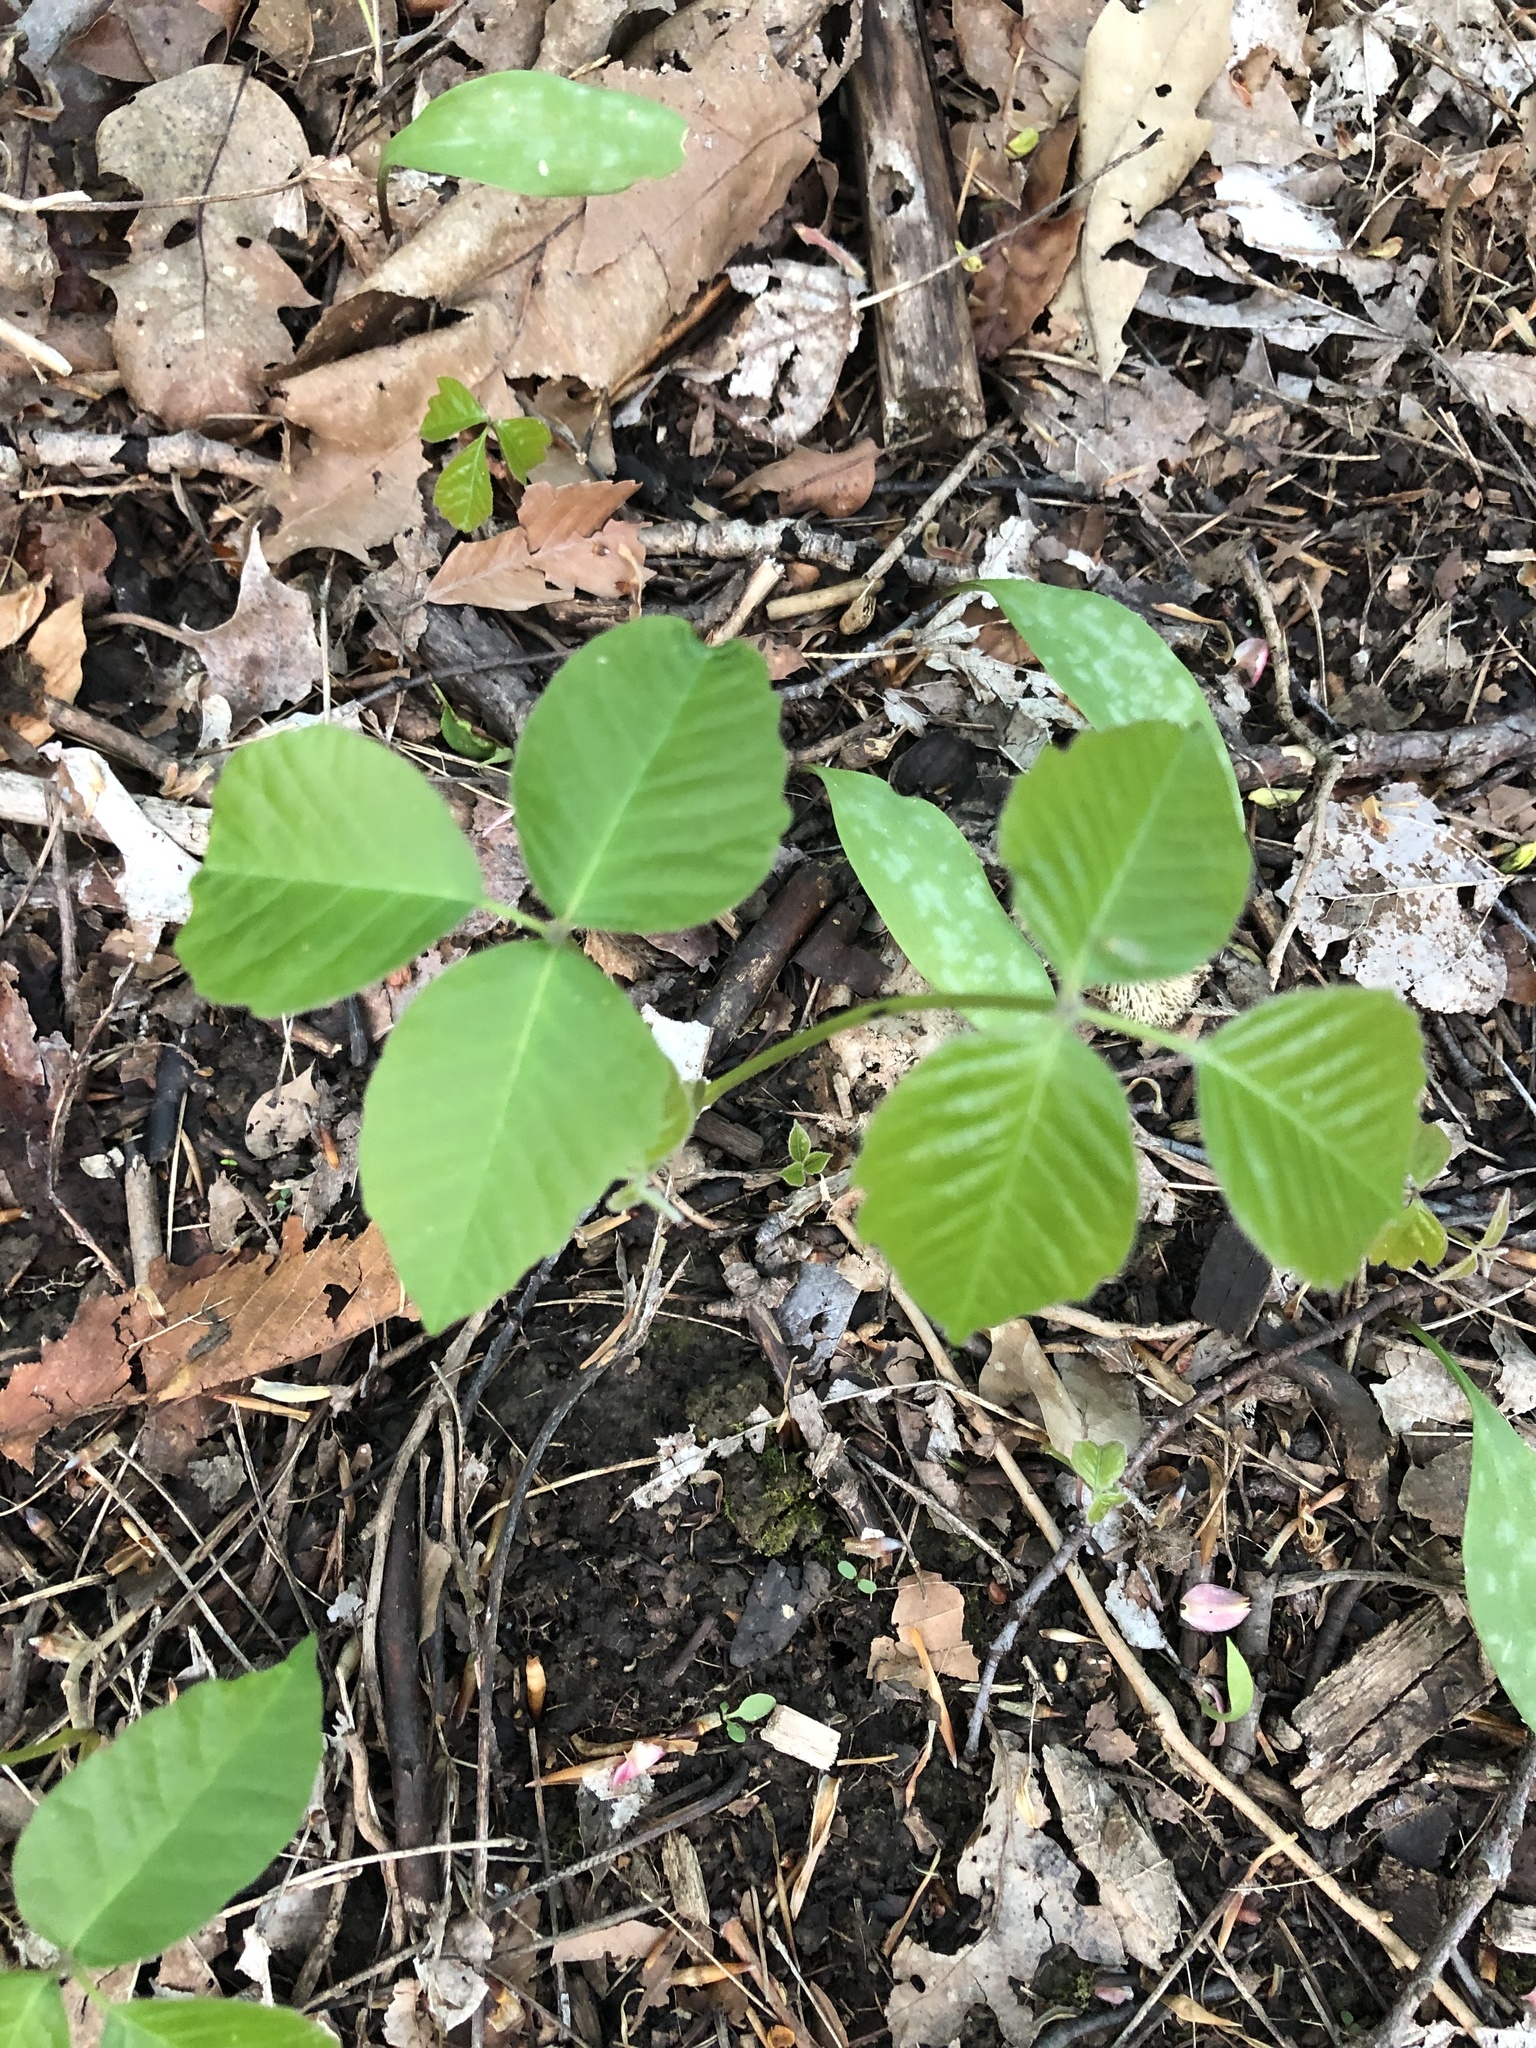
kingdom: Plantae
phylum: Tracheophyta
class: Magnoliopsida
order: Sapindales
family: Anacardiaceae
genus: Toxicodendron
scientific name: Toxicodendron rydbergii
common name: Rydberg's poison-ivy
